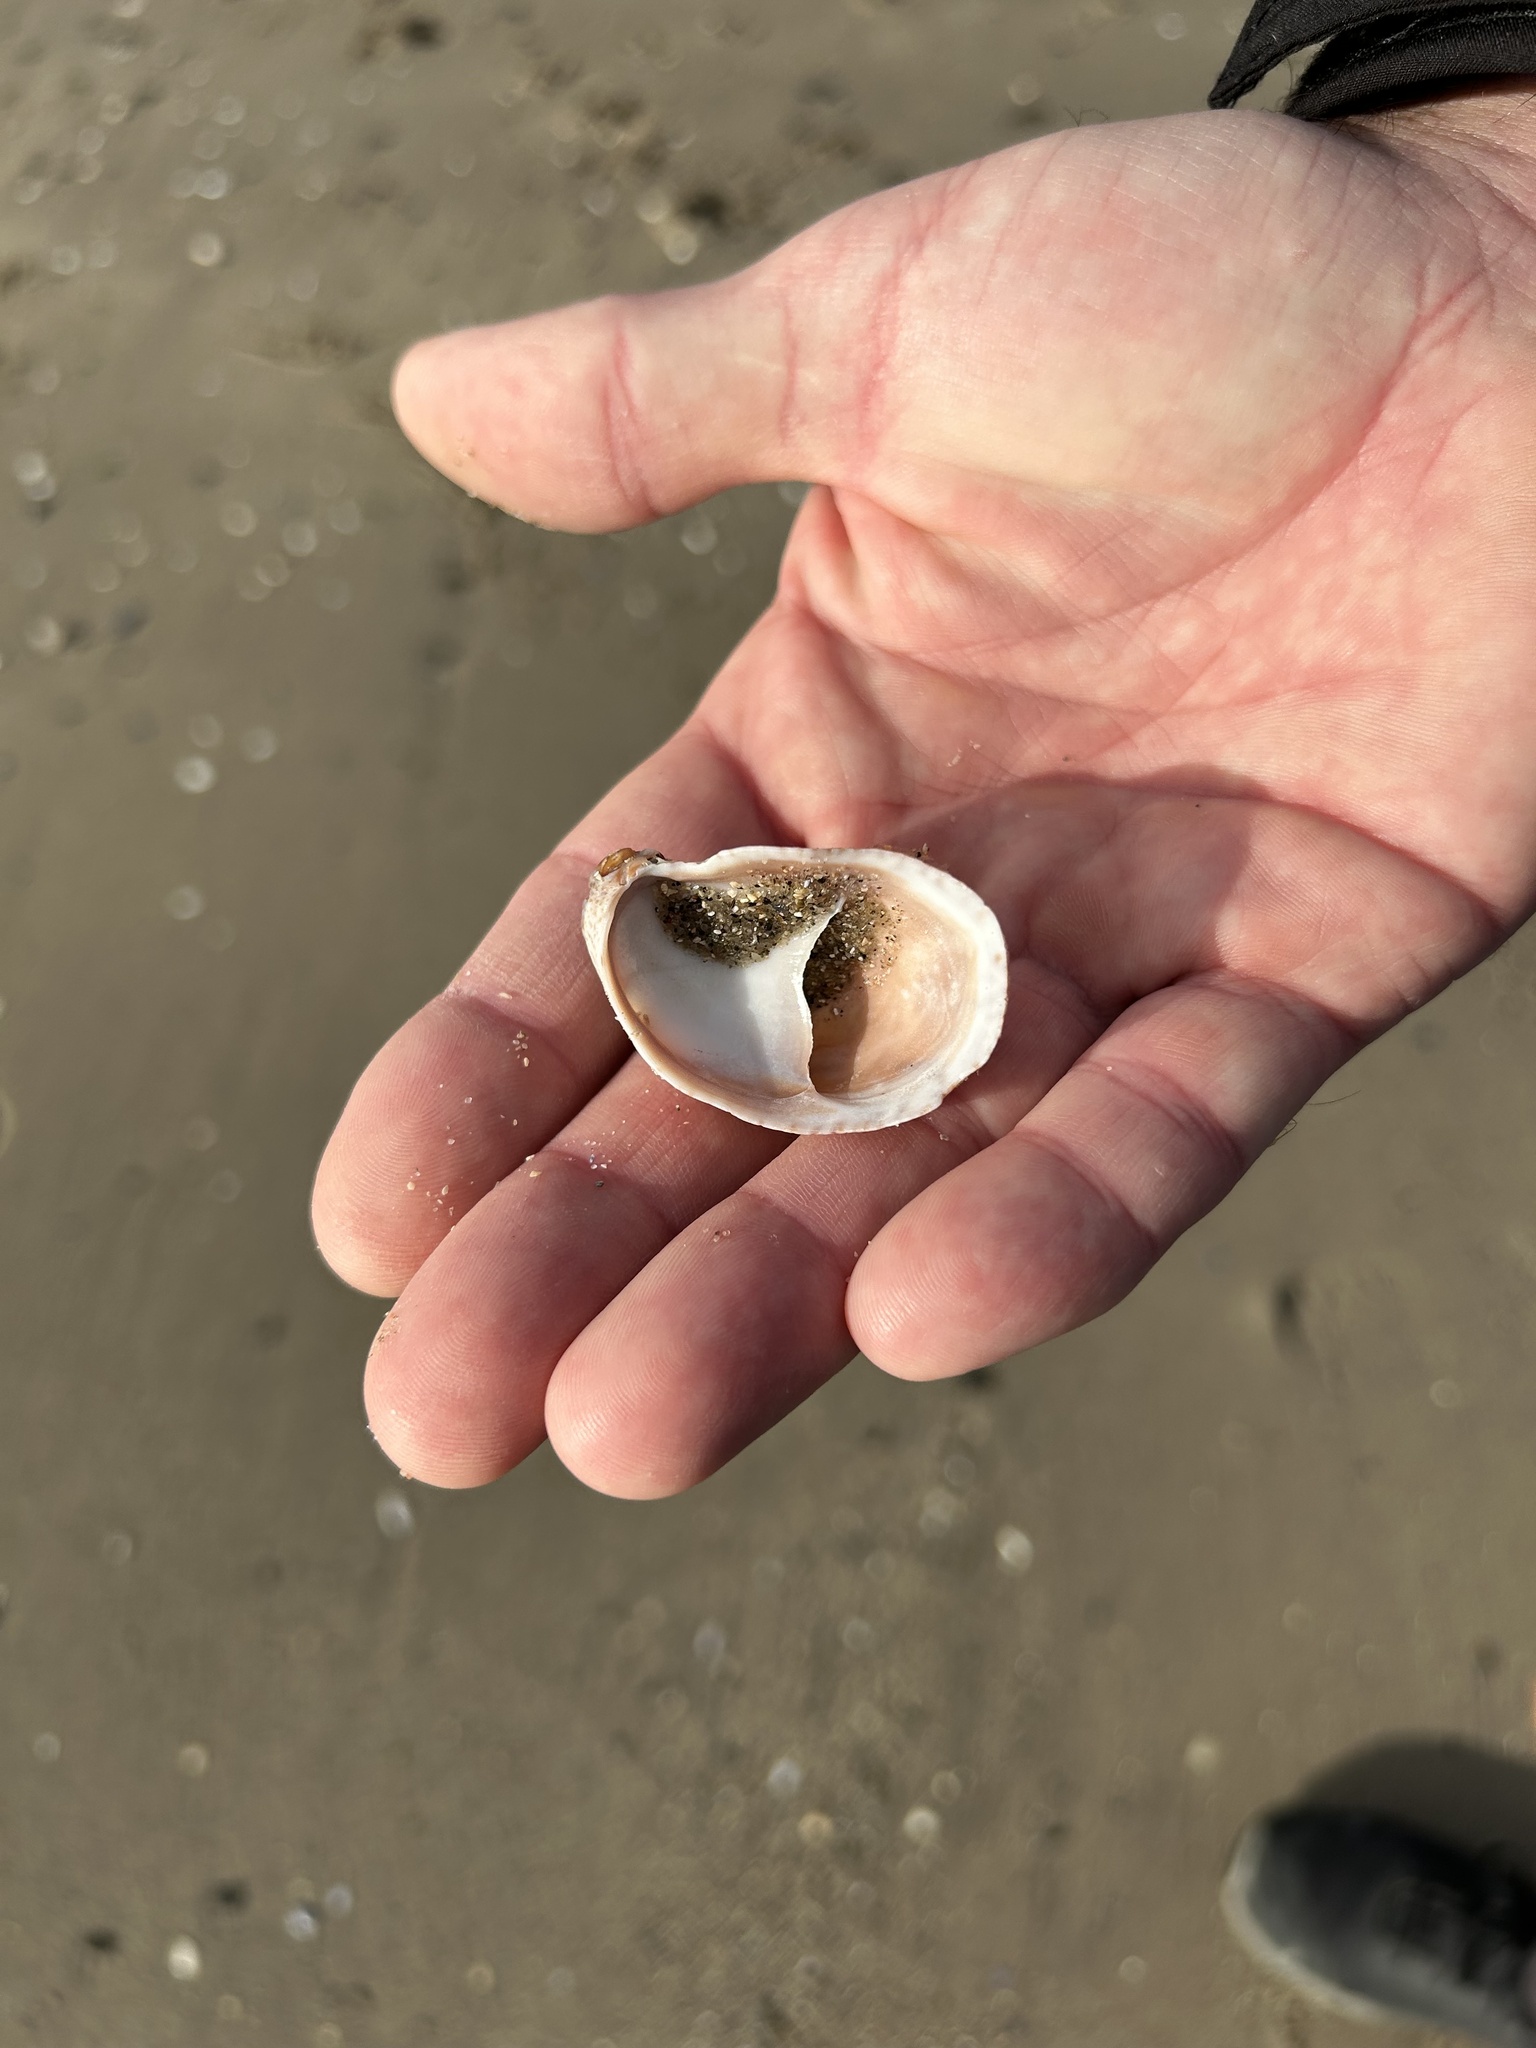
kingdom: Animalia
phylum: Mollusca
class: Gastropoda
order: Littorinimorpha
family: Calyptraeidae
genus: Crepidula
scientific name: Crepidula fornicata
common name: Slipper limpet
